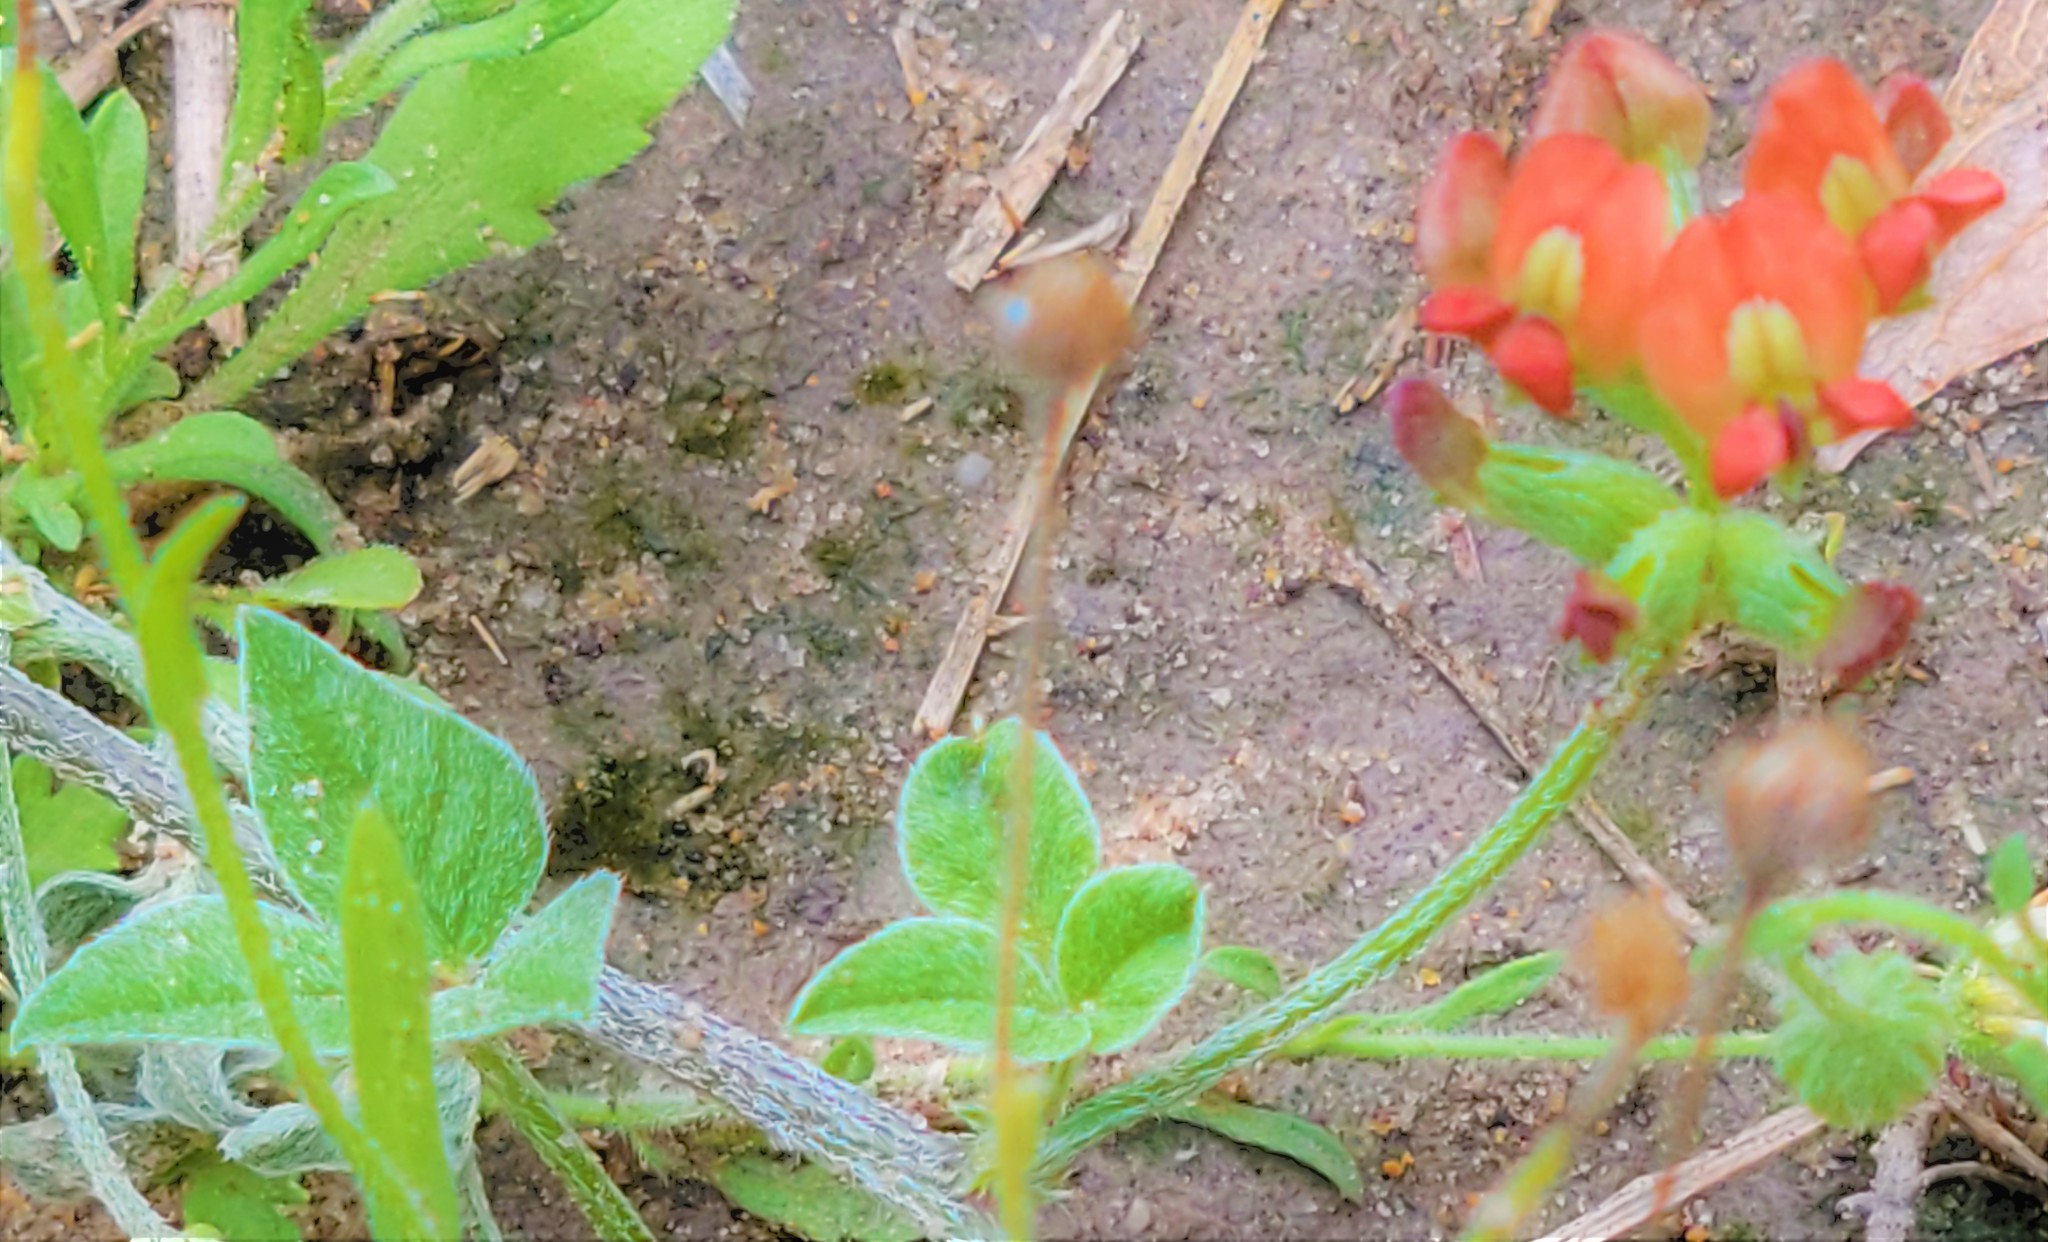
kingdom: Plantae
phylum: Tracheophyta
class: Magnoliopsida
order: Fabales
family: Fabaceae
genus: Pediomelum
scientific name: Pediomelum rhombifolium
